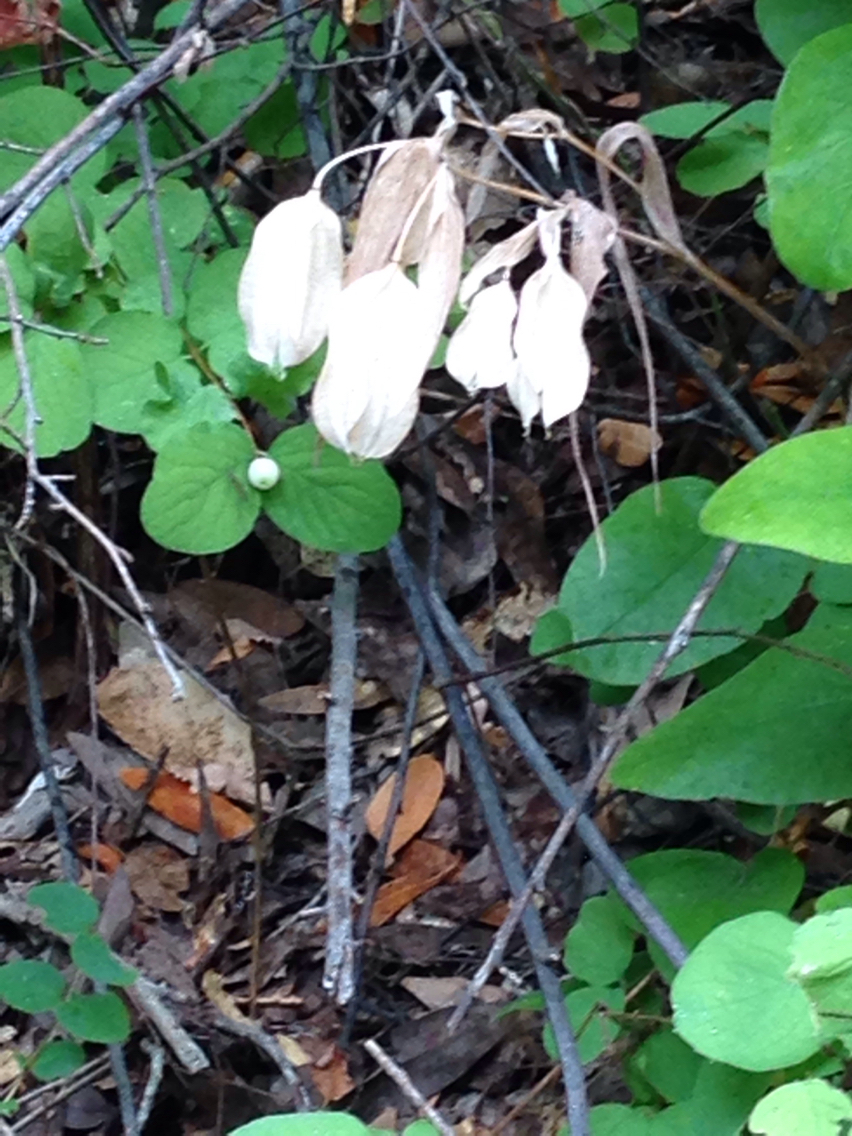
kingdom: Plantae
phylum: Tracheophyta
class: Liliopsida
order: Liliales
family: Liliaceae
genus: Calochortus
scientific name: Calochortus albus
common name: Fairy-lantern
